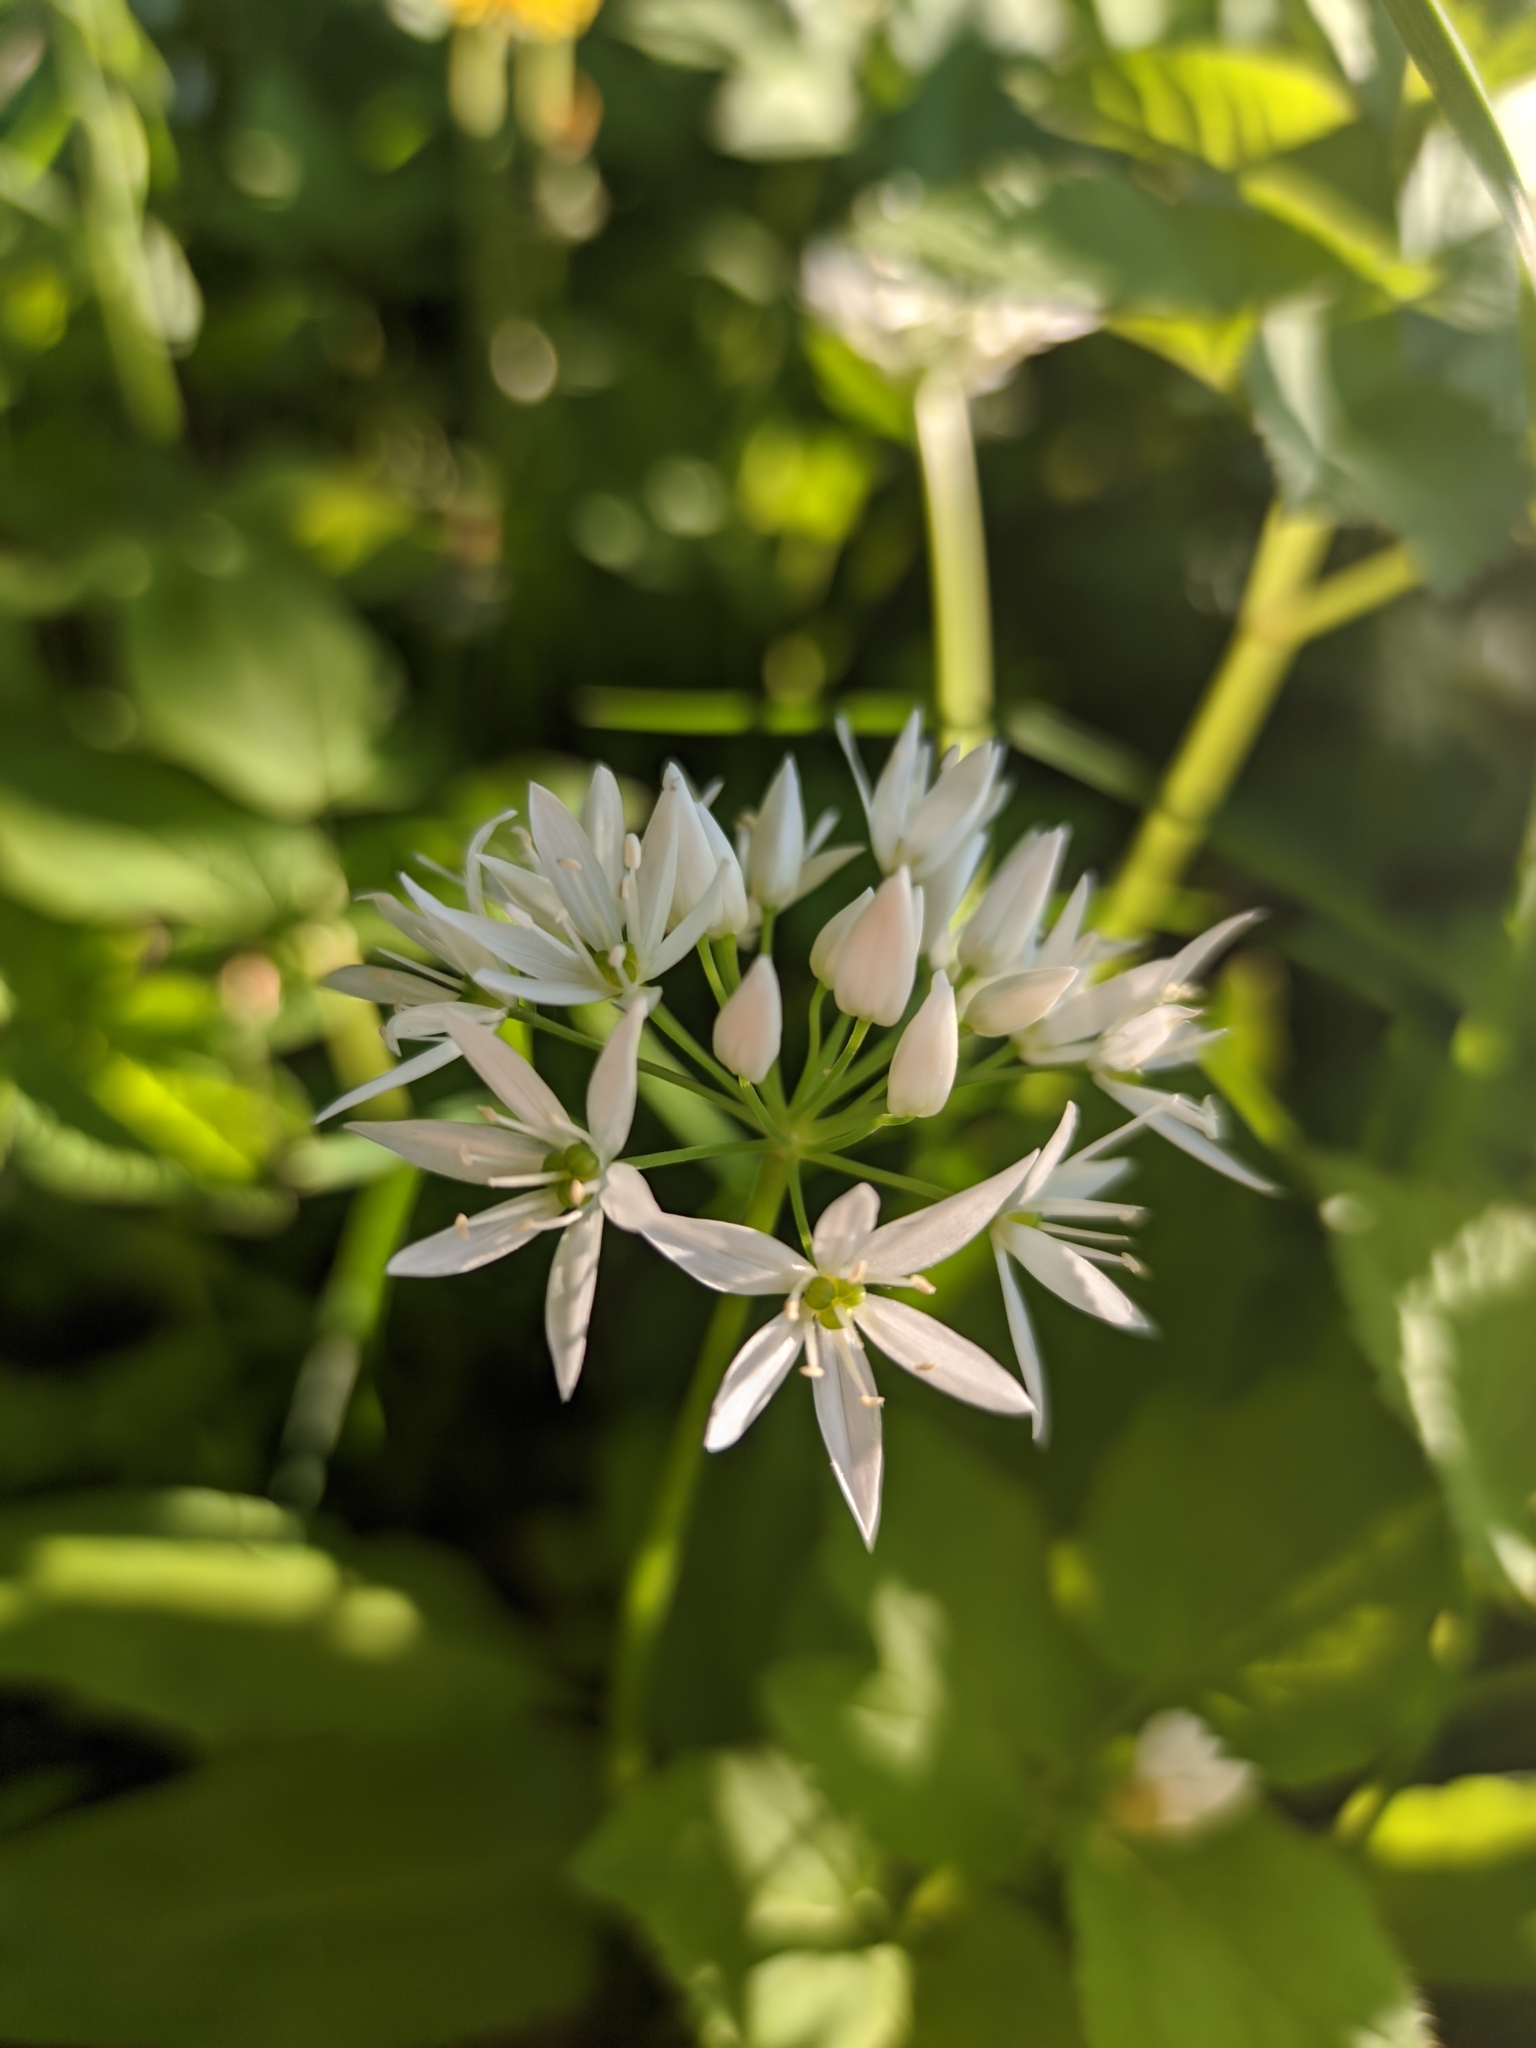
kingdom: Plantae
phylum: Tracheophyta
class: Liliopsida
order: Asparagales
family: Amaryllidaceae
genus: Allium
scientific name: Allium ursinum
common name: Ramsons
